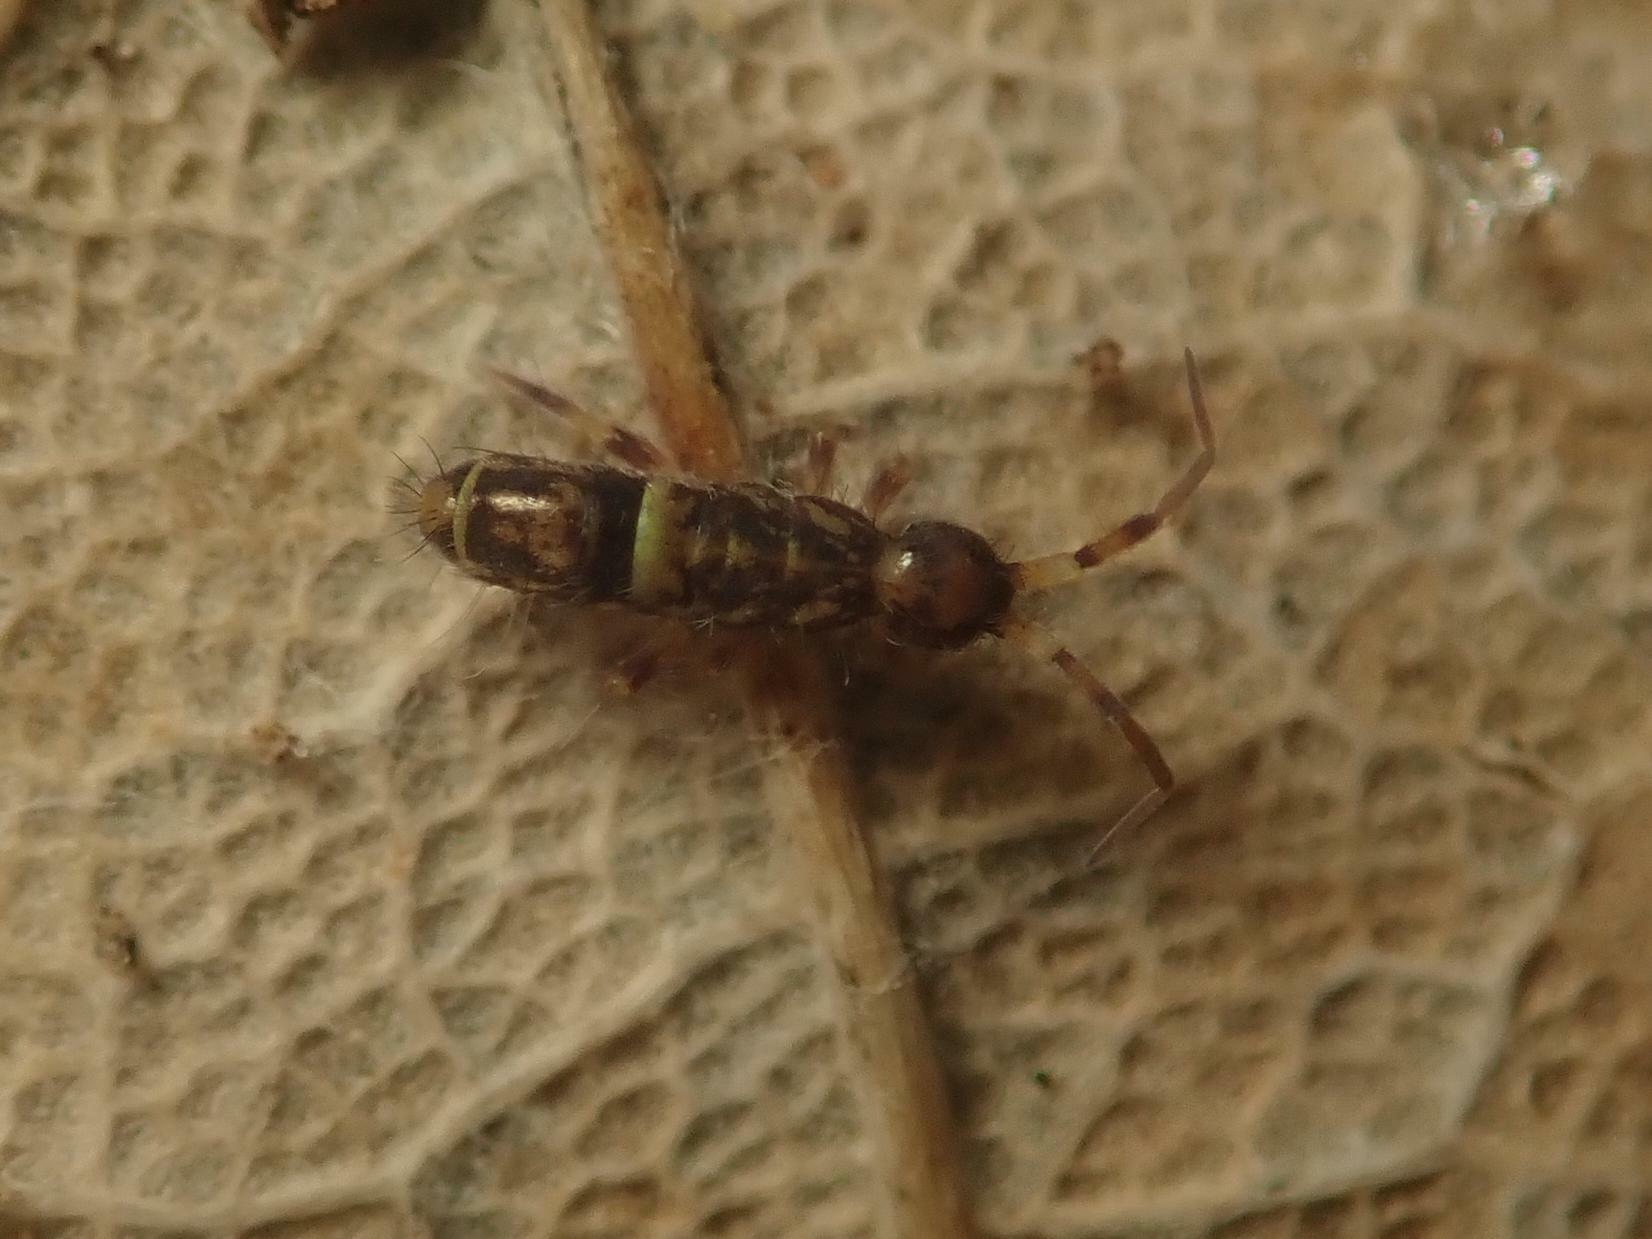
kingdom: Animalia
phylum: Arthropoda
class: Collembola
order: Entomobryomorpha
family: Orchesellidae
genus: Orchesella
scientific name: Orchesella cincta
